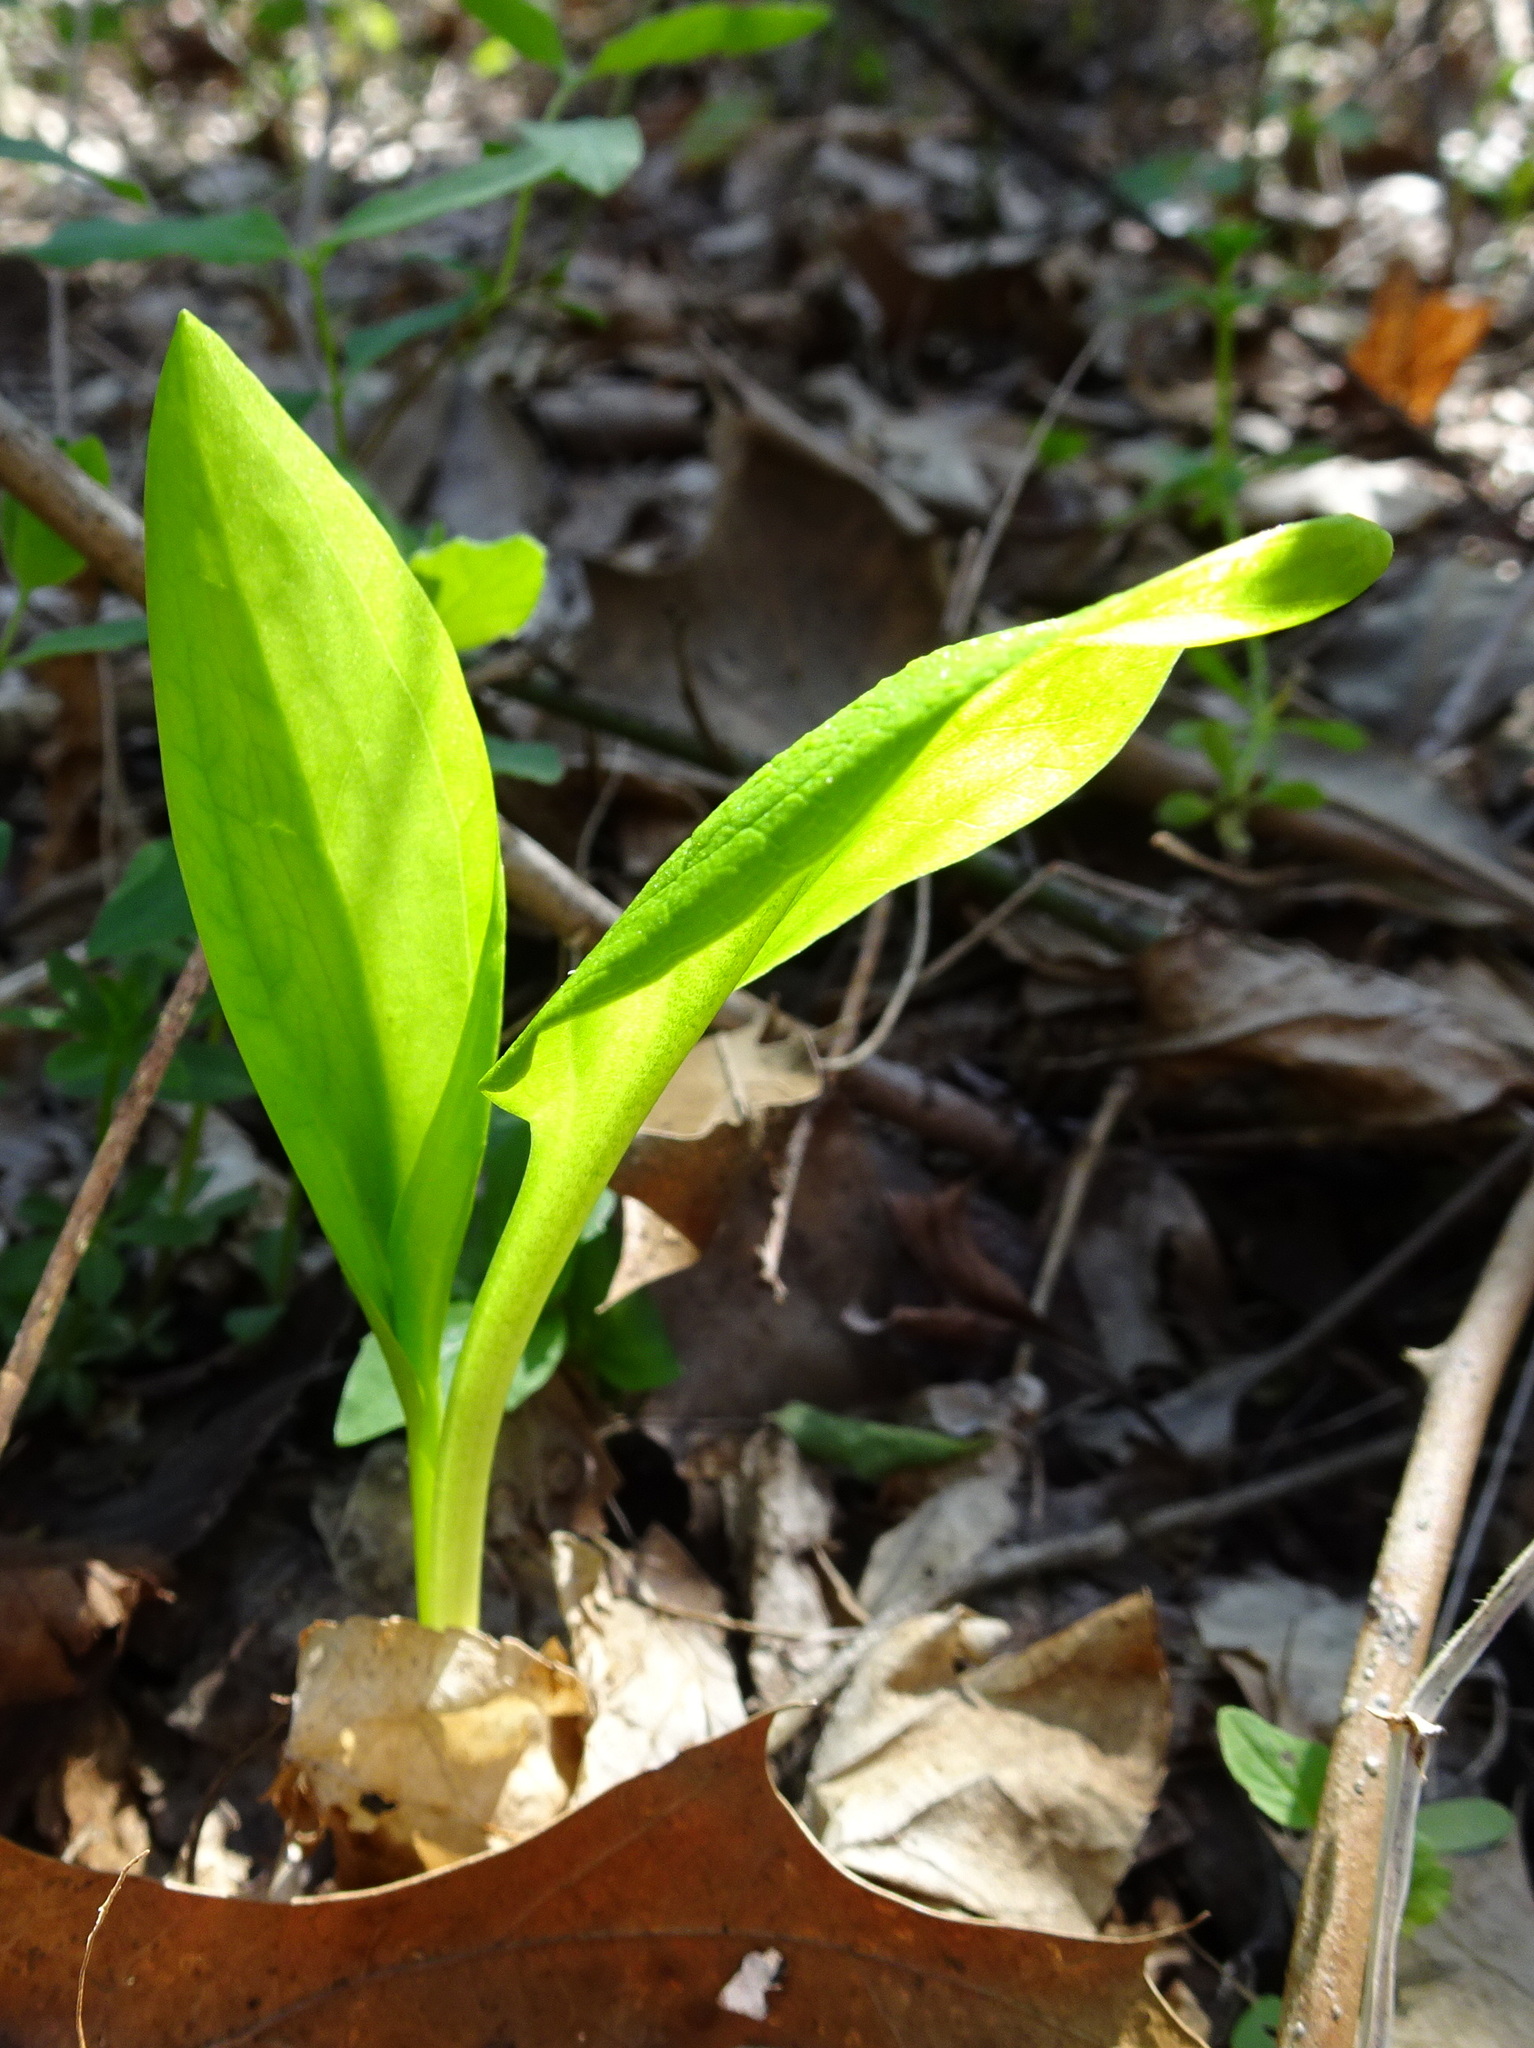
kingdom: Plantae
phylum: Tracheophyta
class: Liliopsida
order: Alismatales
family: Araceae
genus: Symplocarpus
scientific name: Symplocarpus foetidus
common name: Eastern skunk cabbage
